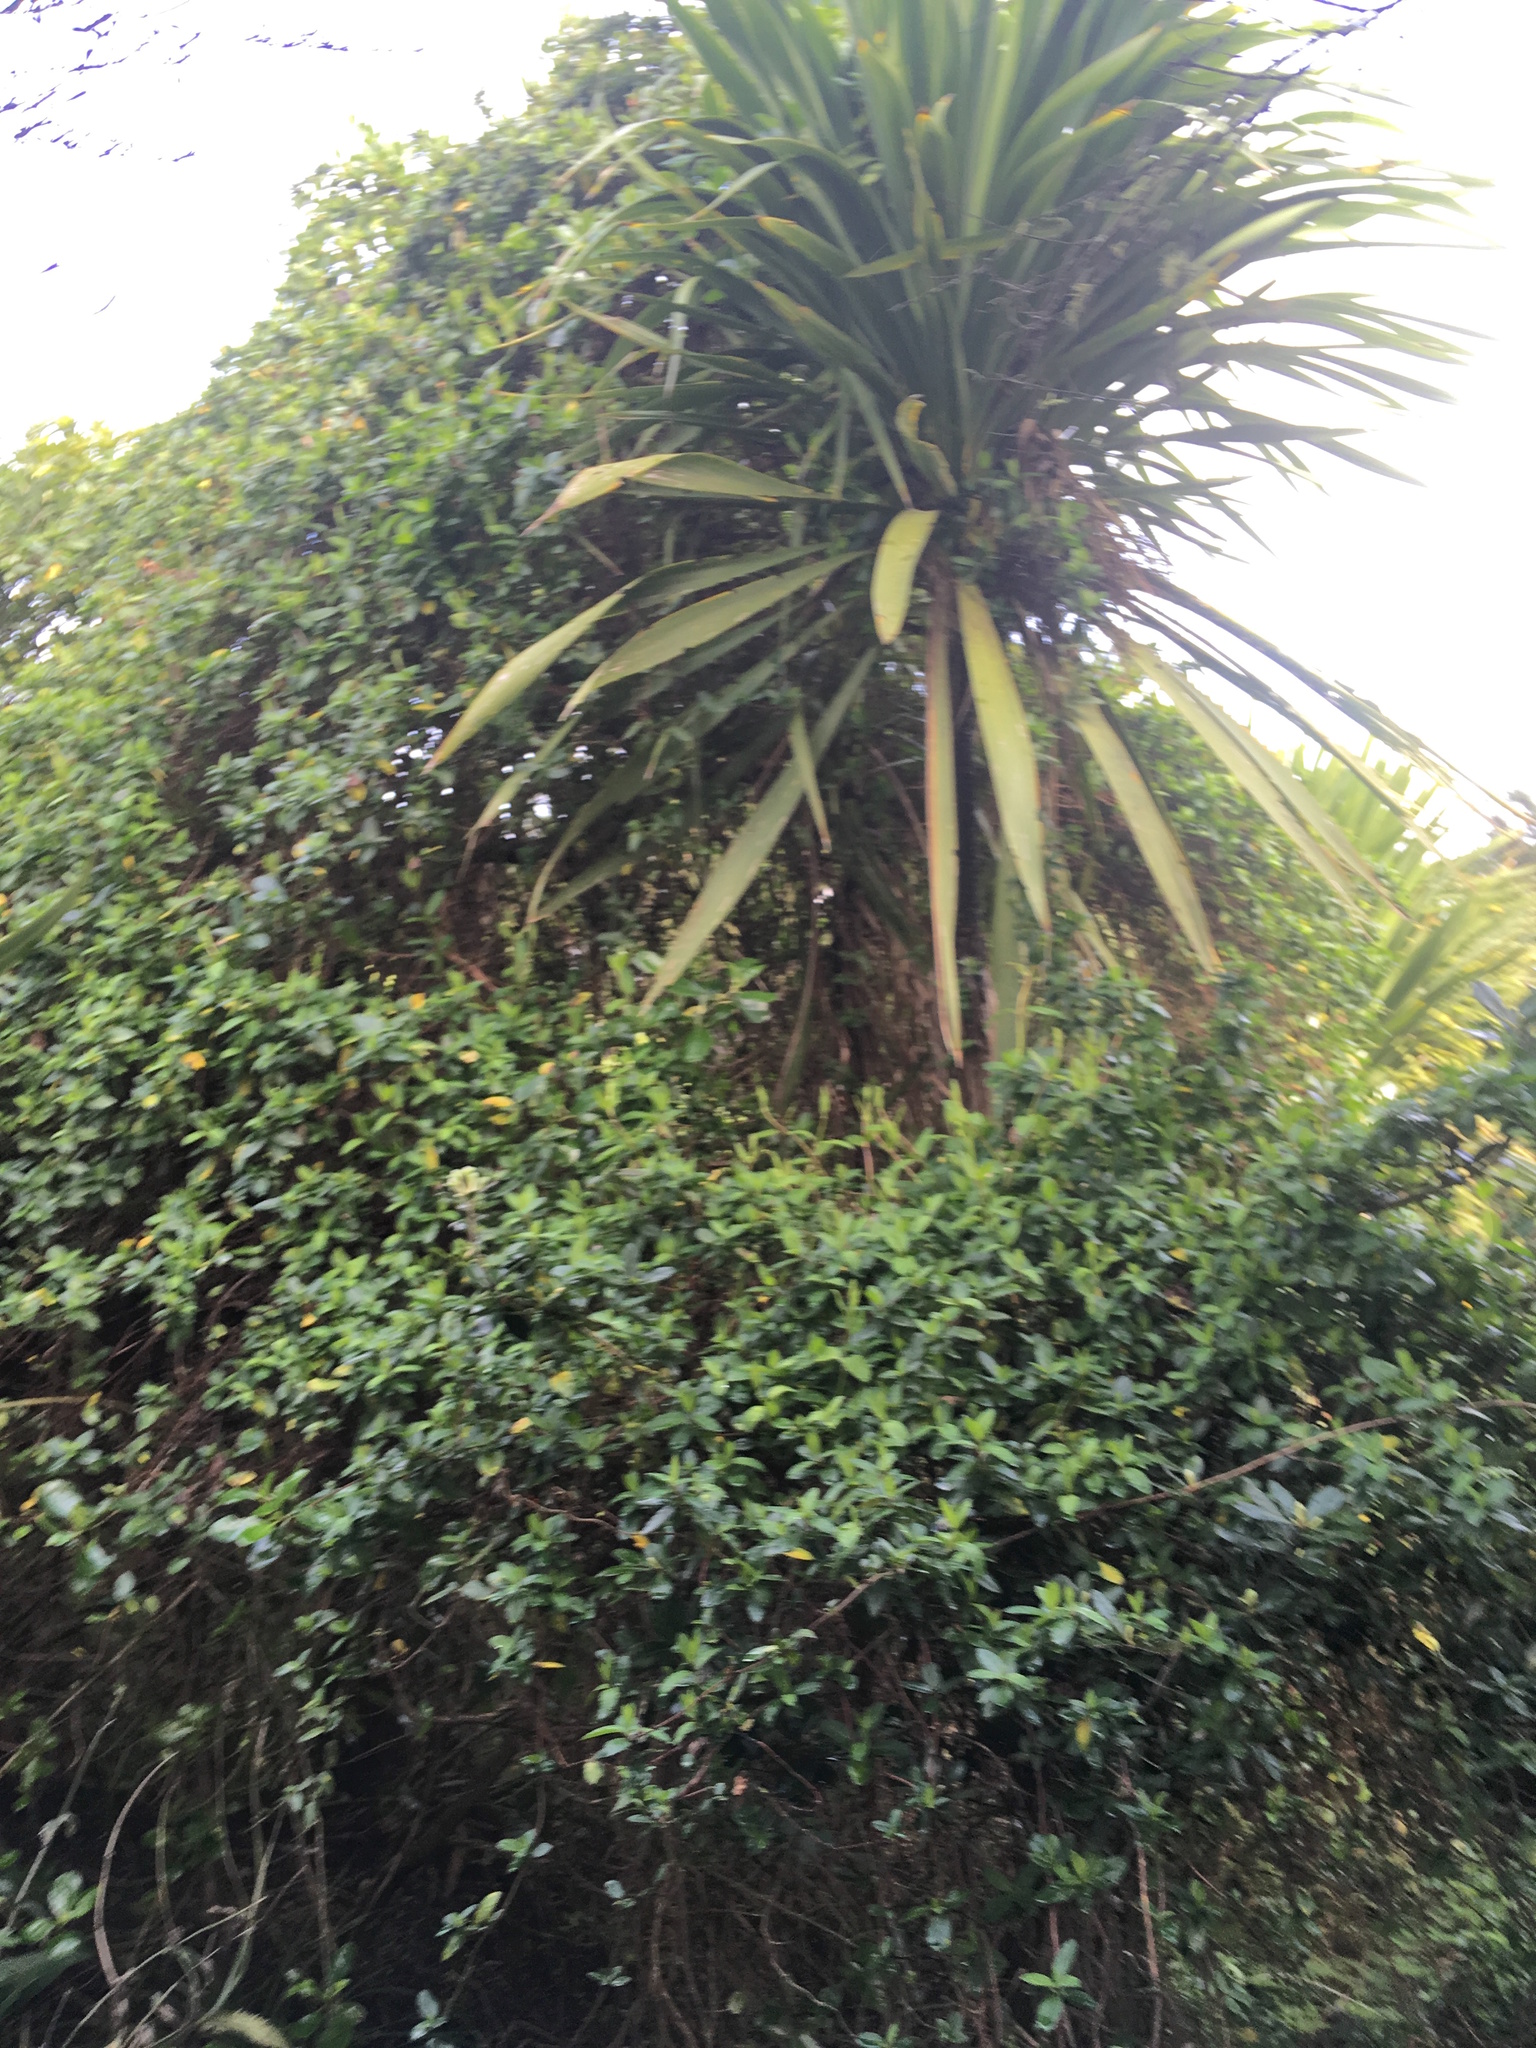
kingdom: Plantae
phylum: Tracheophyta
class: Liliopsida
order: Asparagales
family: Asparagaceae
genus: Cordyline
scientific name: Cordyline australis
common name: Cabbage-palm
